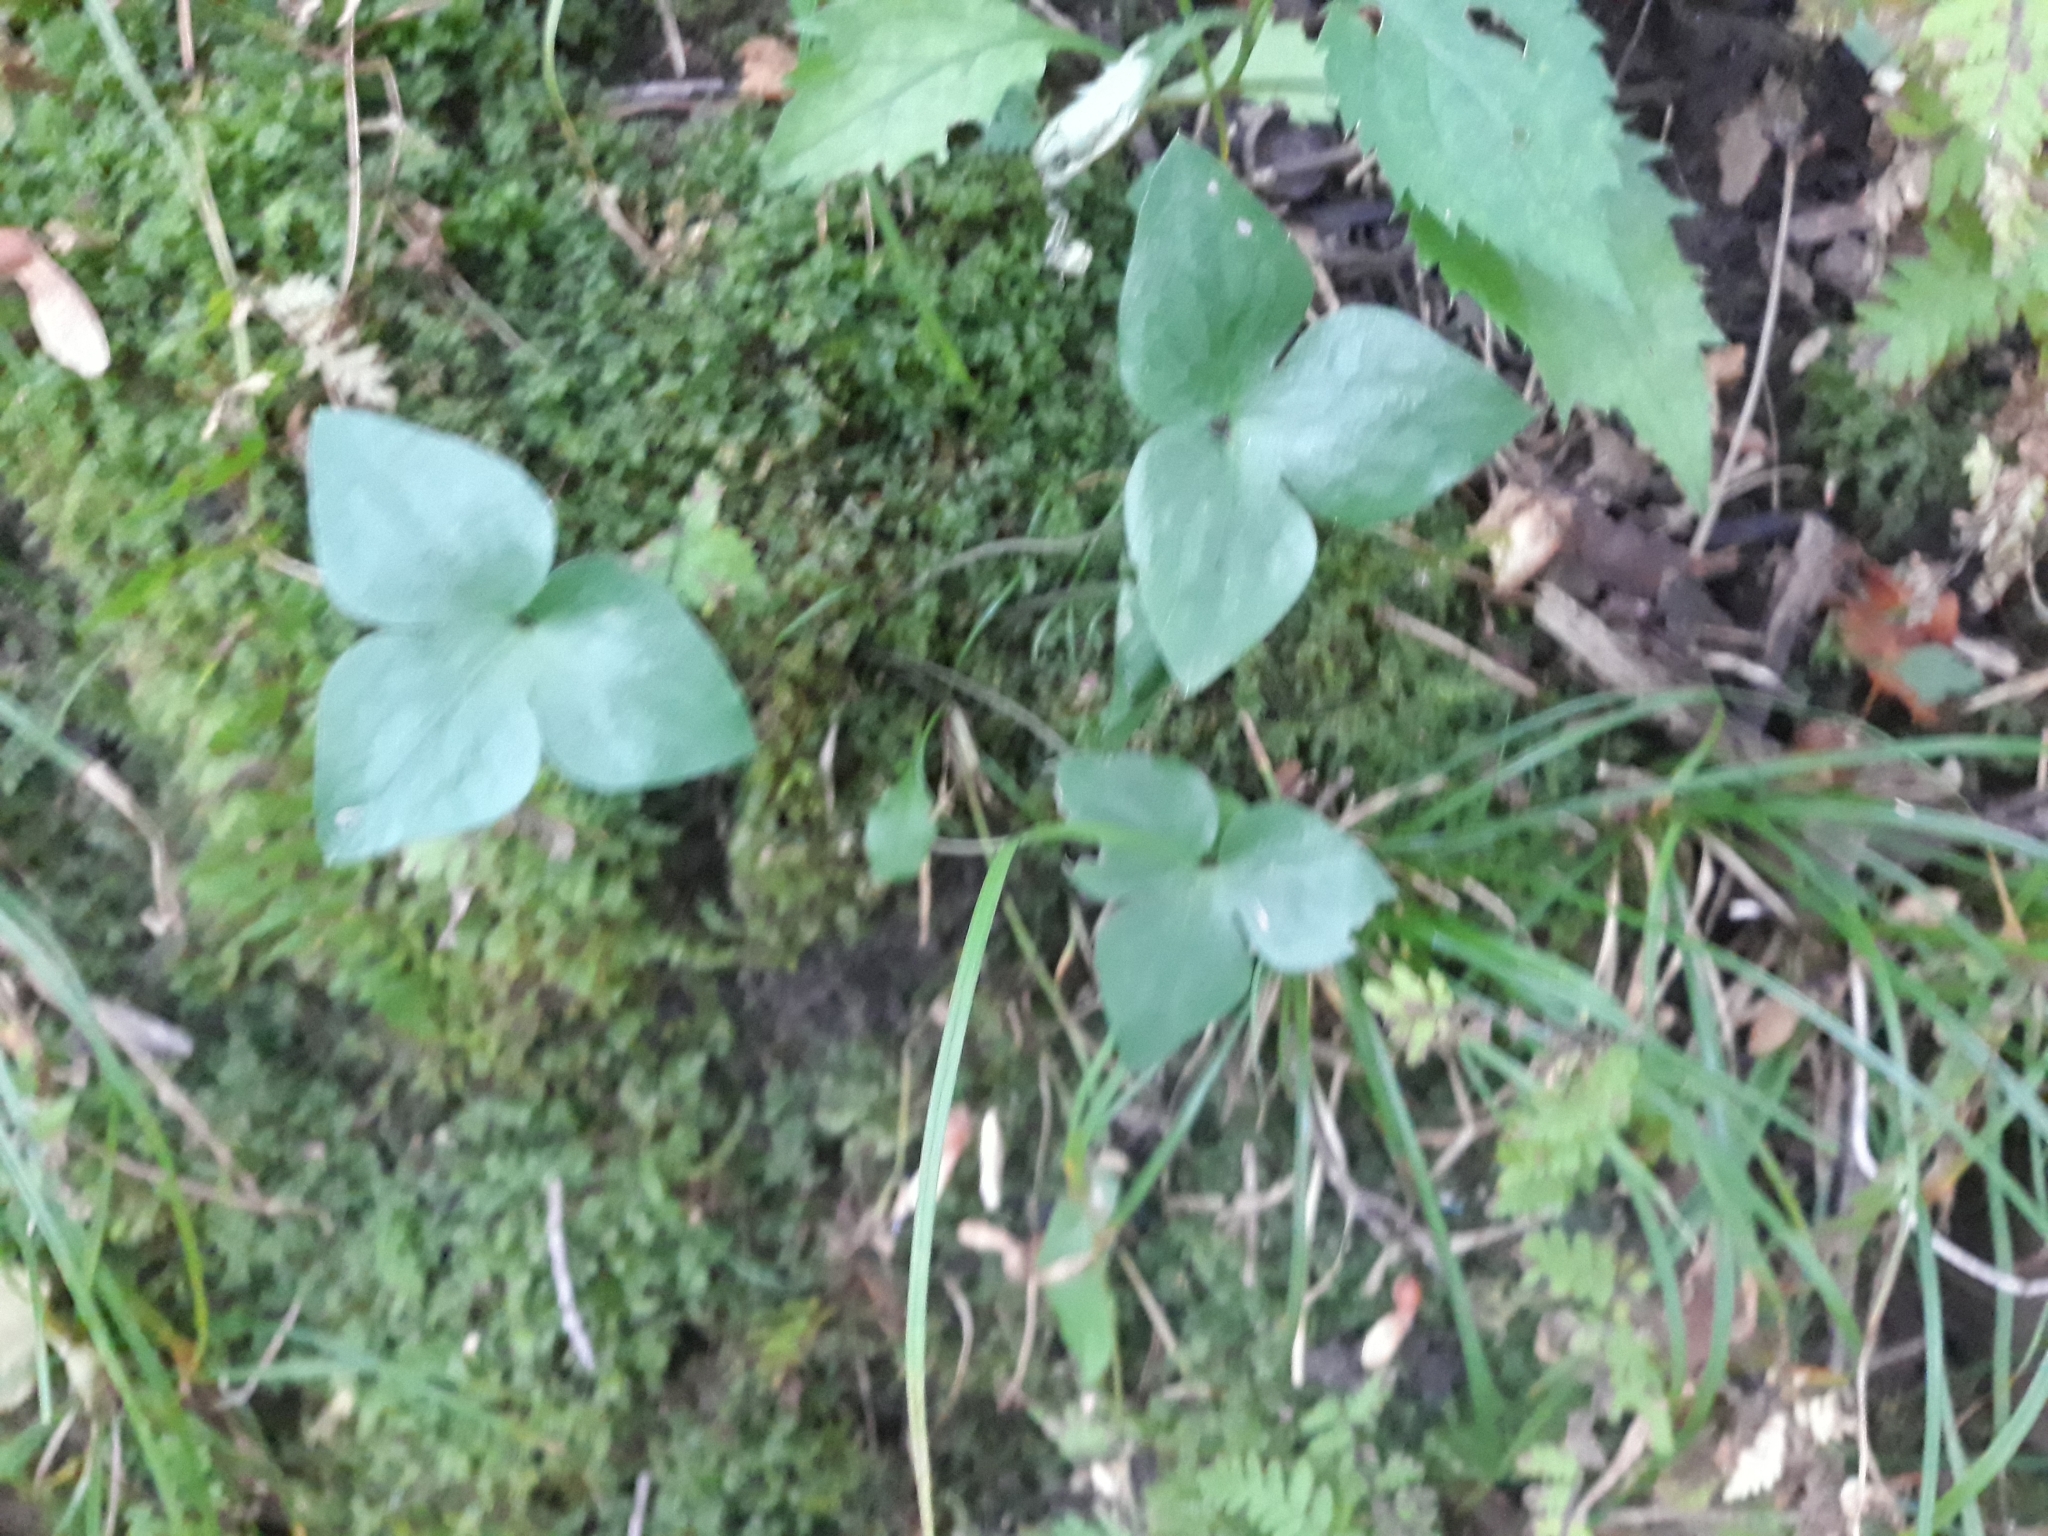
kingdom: Plantae
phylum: Tracheophyta
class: Magnoliopsida
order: Ranunculales
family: Ranunculaceae
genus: Hepatica
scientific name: Hepatica acutiloba
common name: Sharp-lobed hepatica
